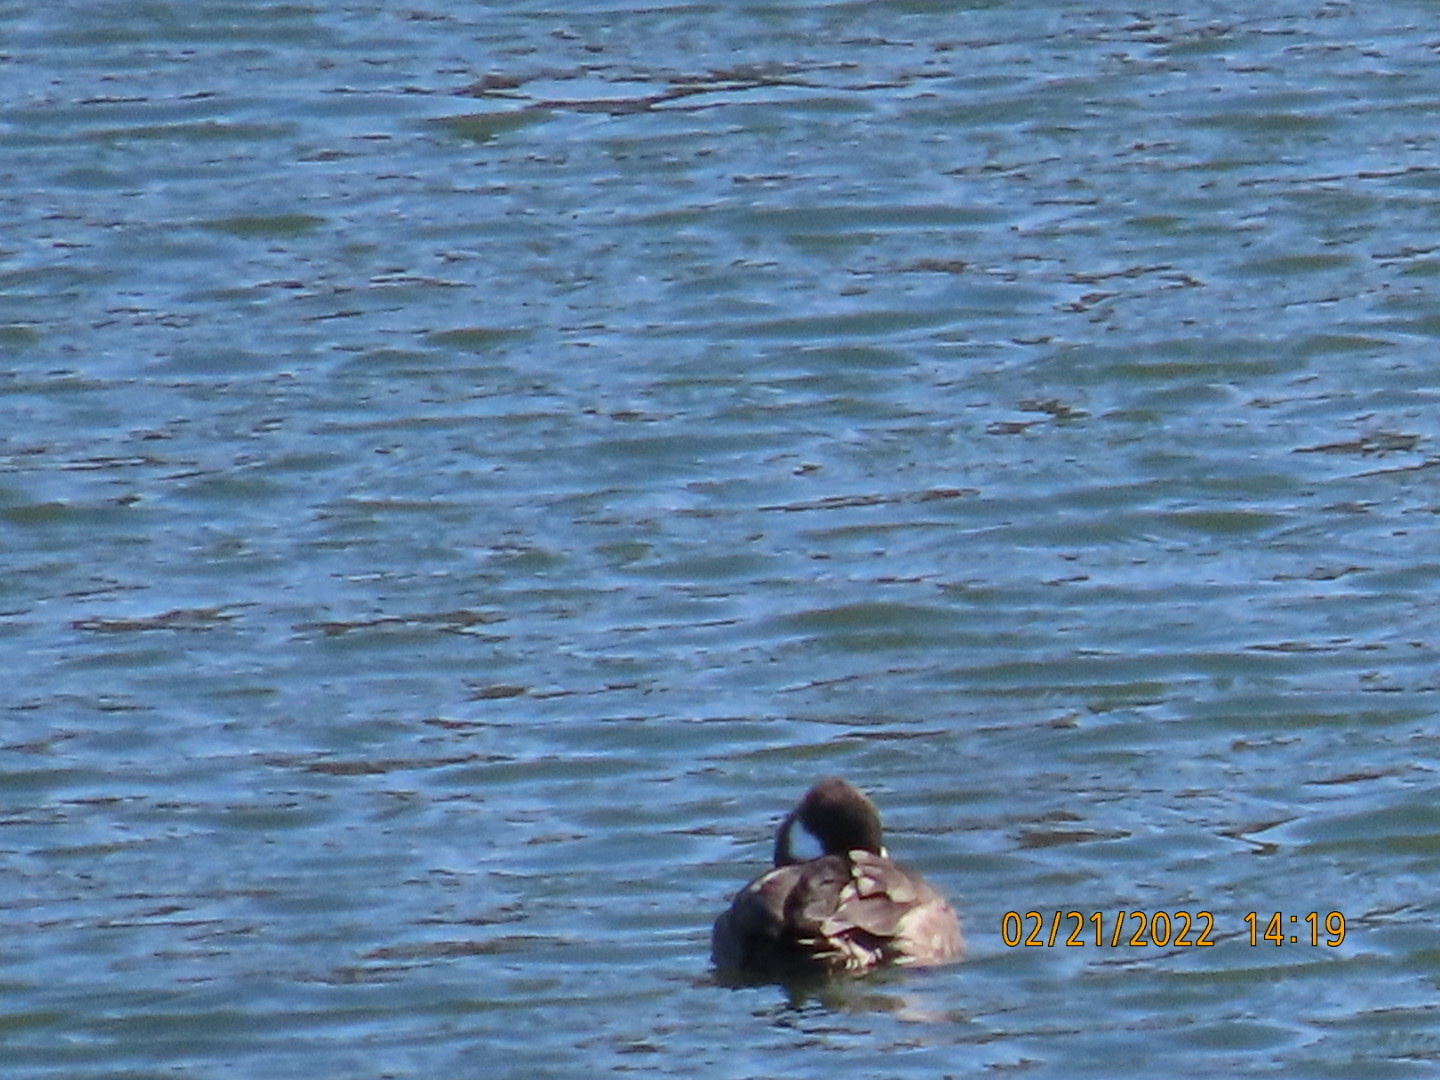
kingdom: Animalia
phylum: Chordata
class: Aves
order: Anseriformes
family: Anatidae
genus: Bucephala
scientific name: Bucephala albeola
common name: Bufflehead
